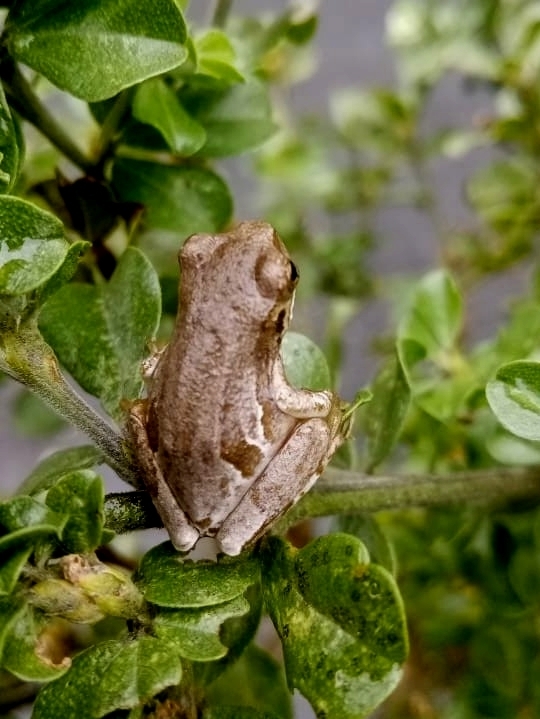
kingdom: Animalia
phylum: Chordata
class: Amphibia
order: Anura
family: Hyperoliidae
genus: Hyperolius
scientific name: Hyperolius marmoratus
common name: Painted reed frog
